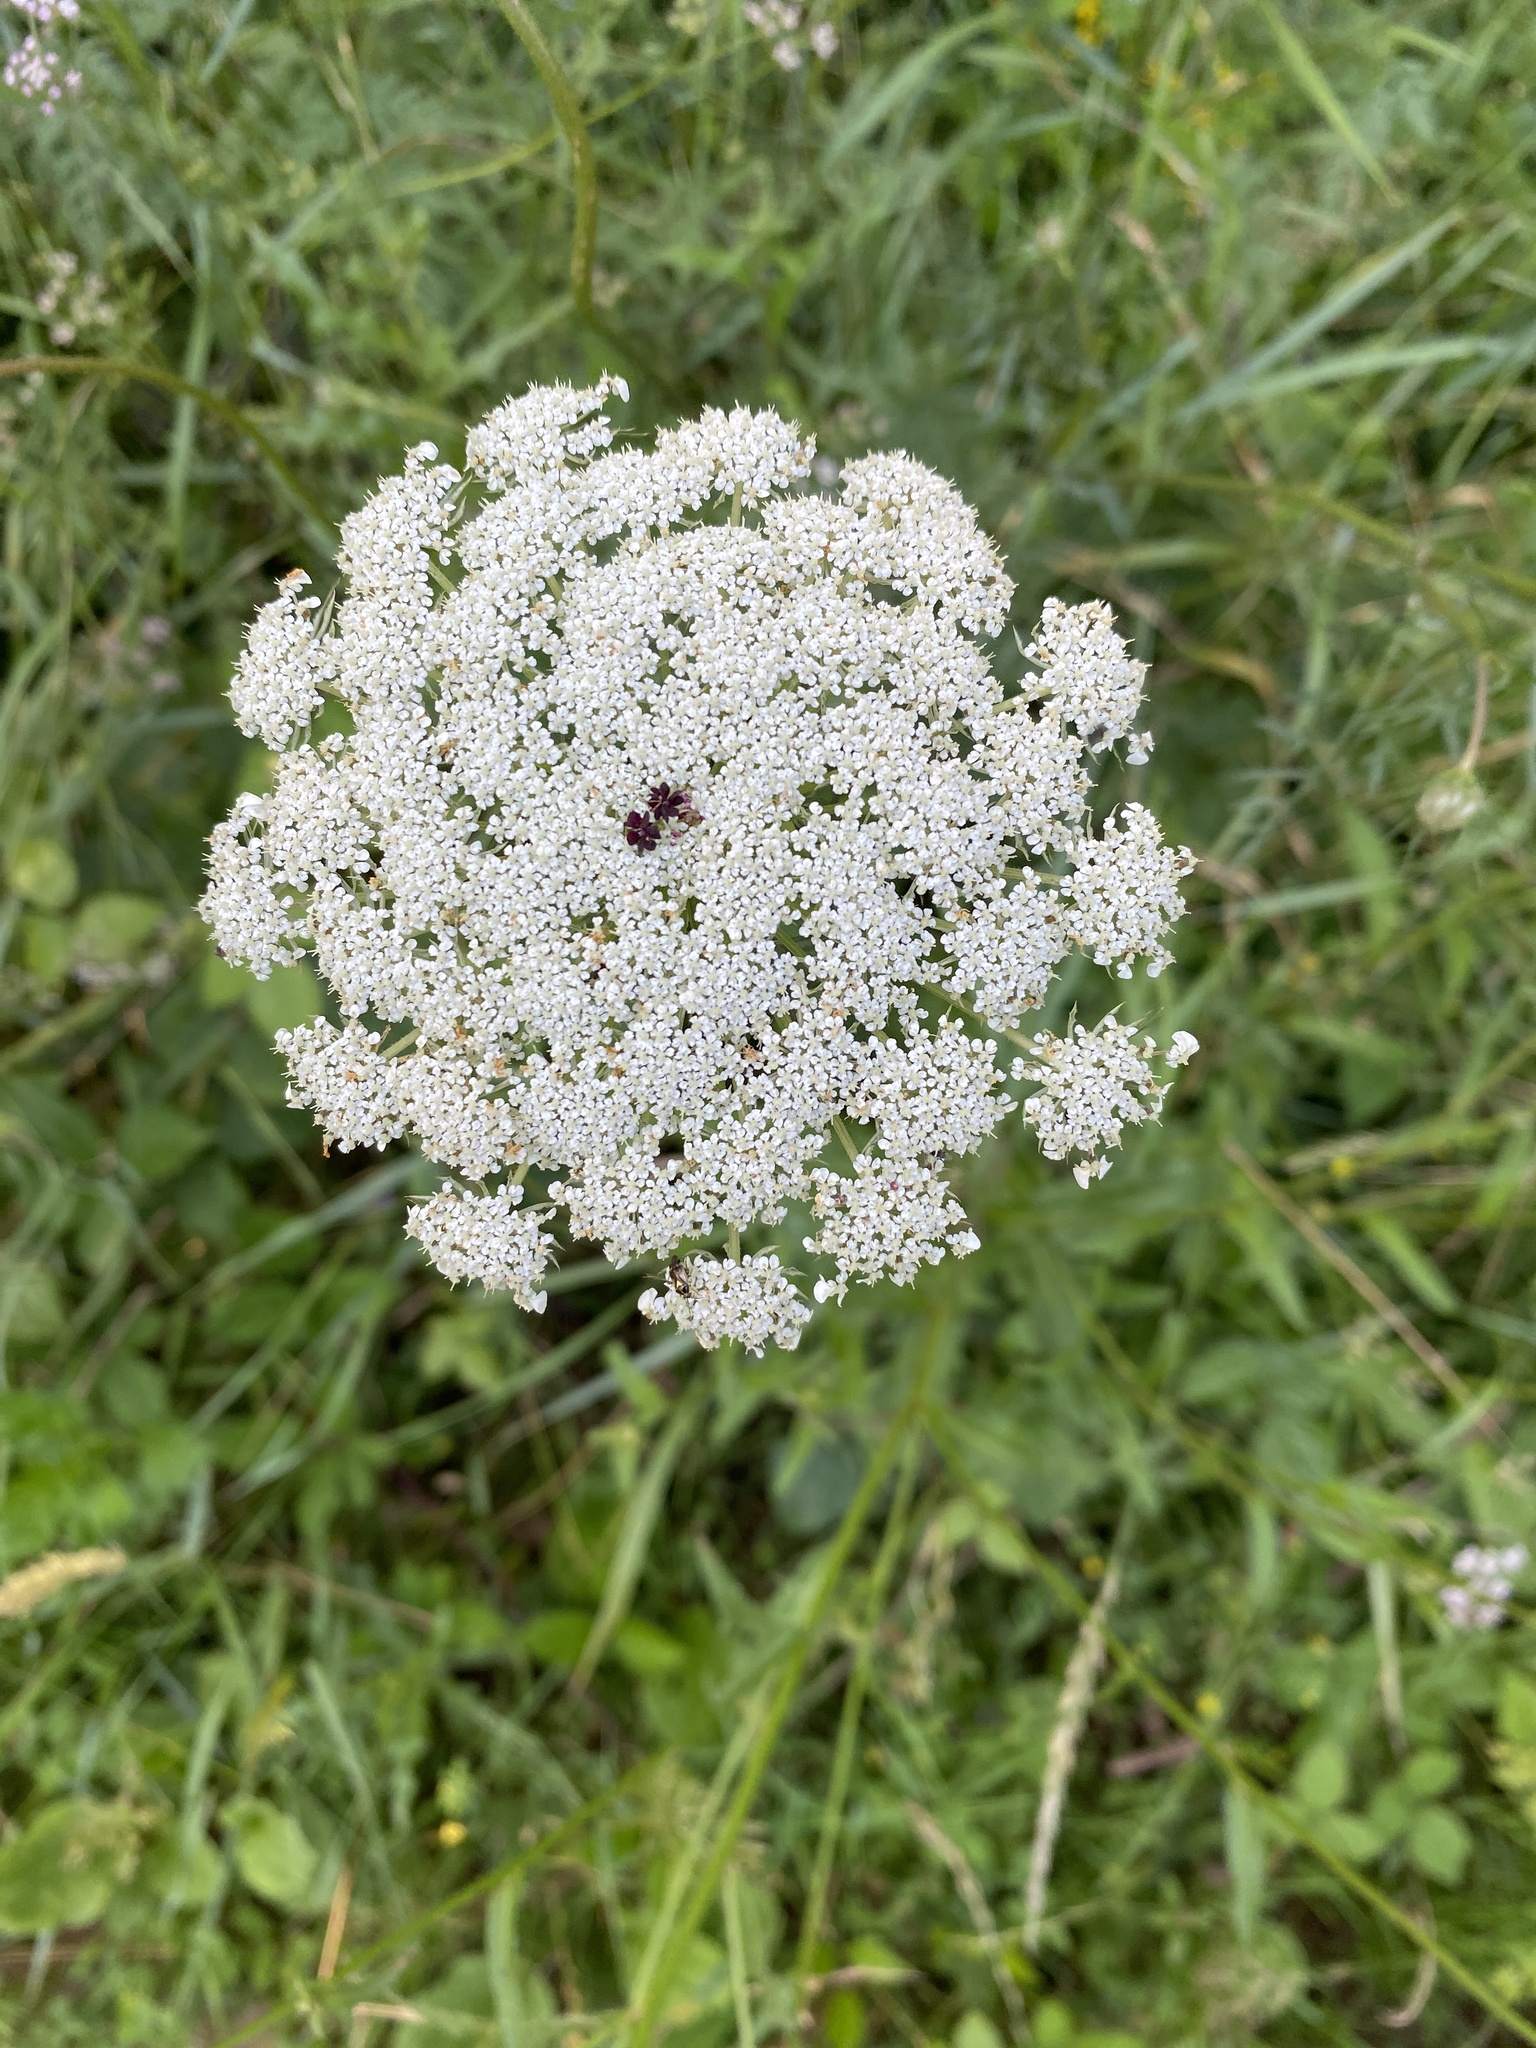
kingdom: Plantae
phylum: Tracheophyta
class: Magnoliopsida
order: Apiales
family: Apiaceae
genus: Daucus
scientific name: Daucus carota
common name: Wild carrot
